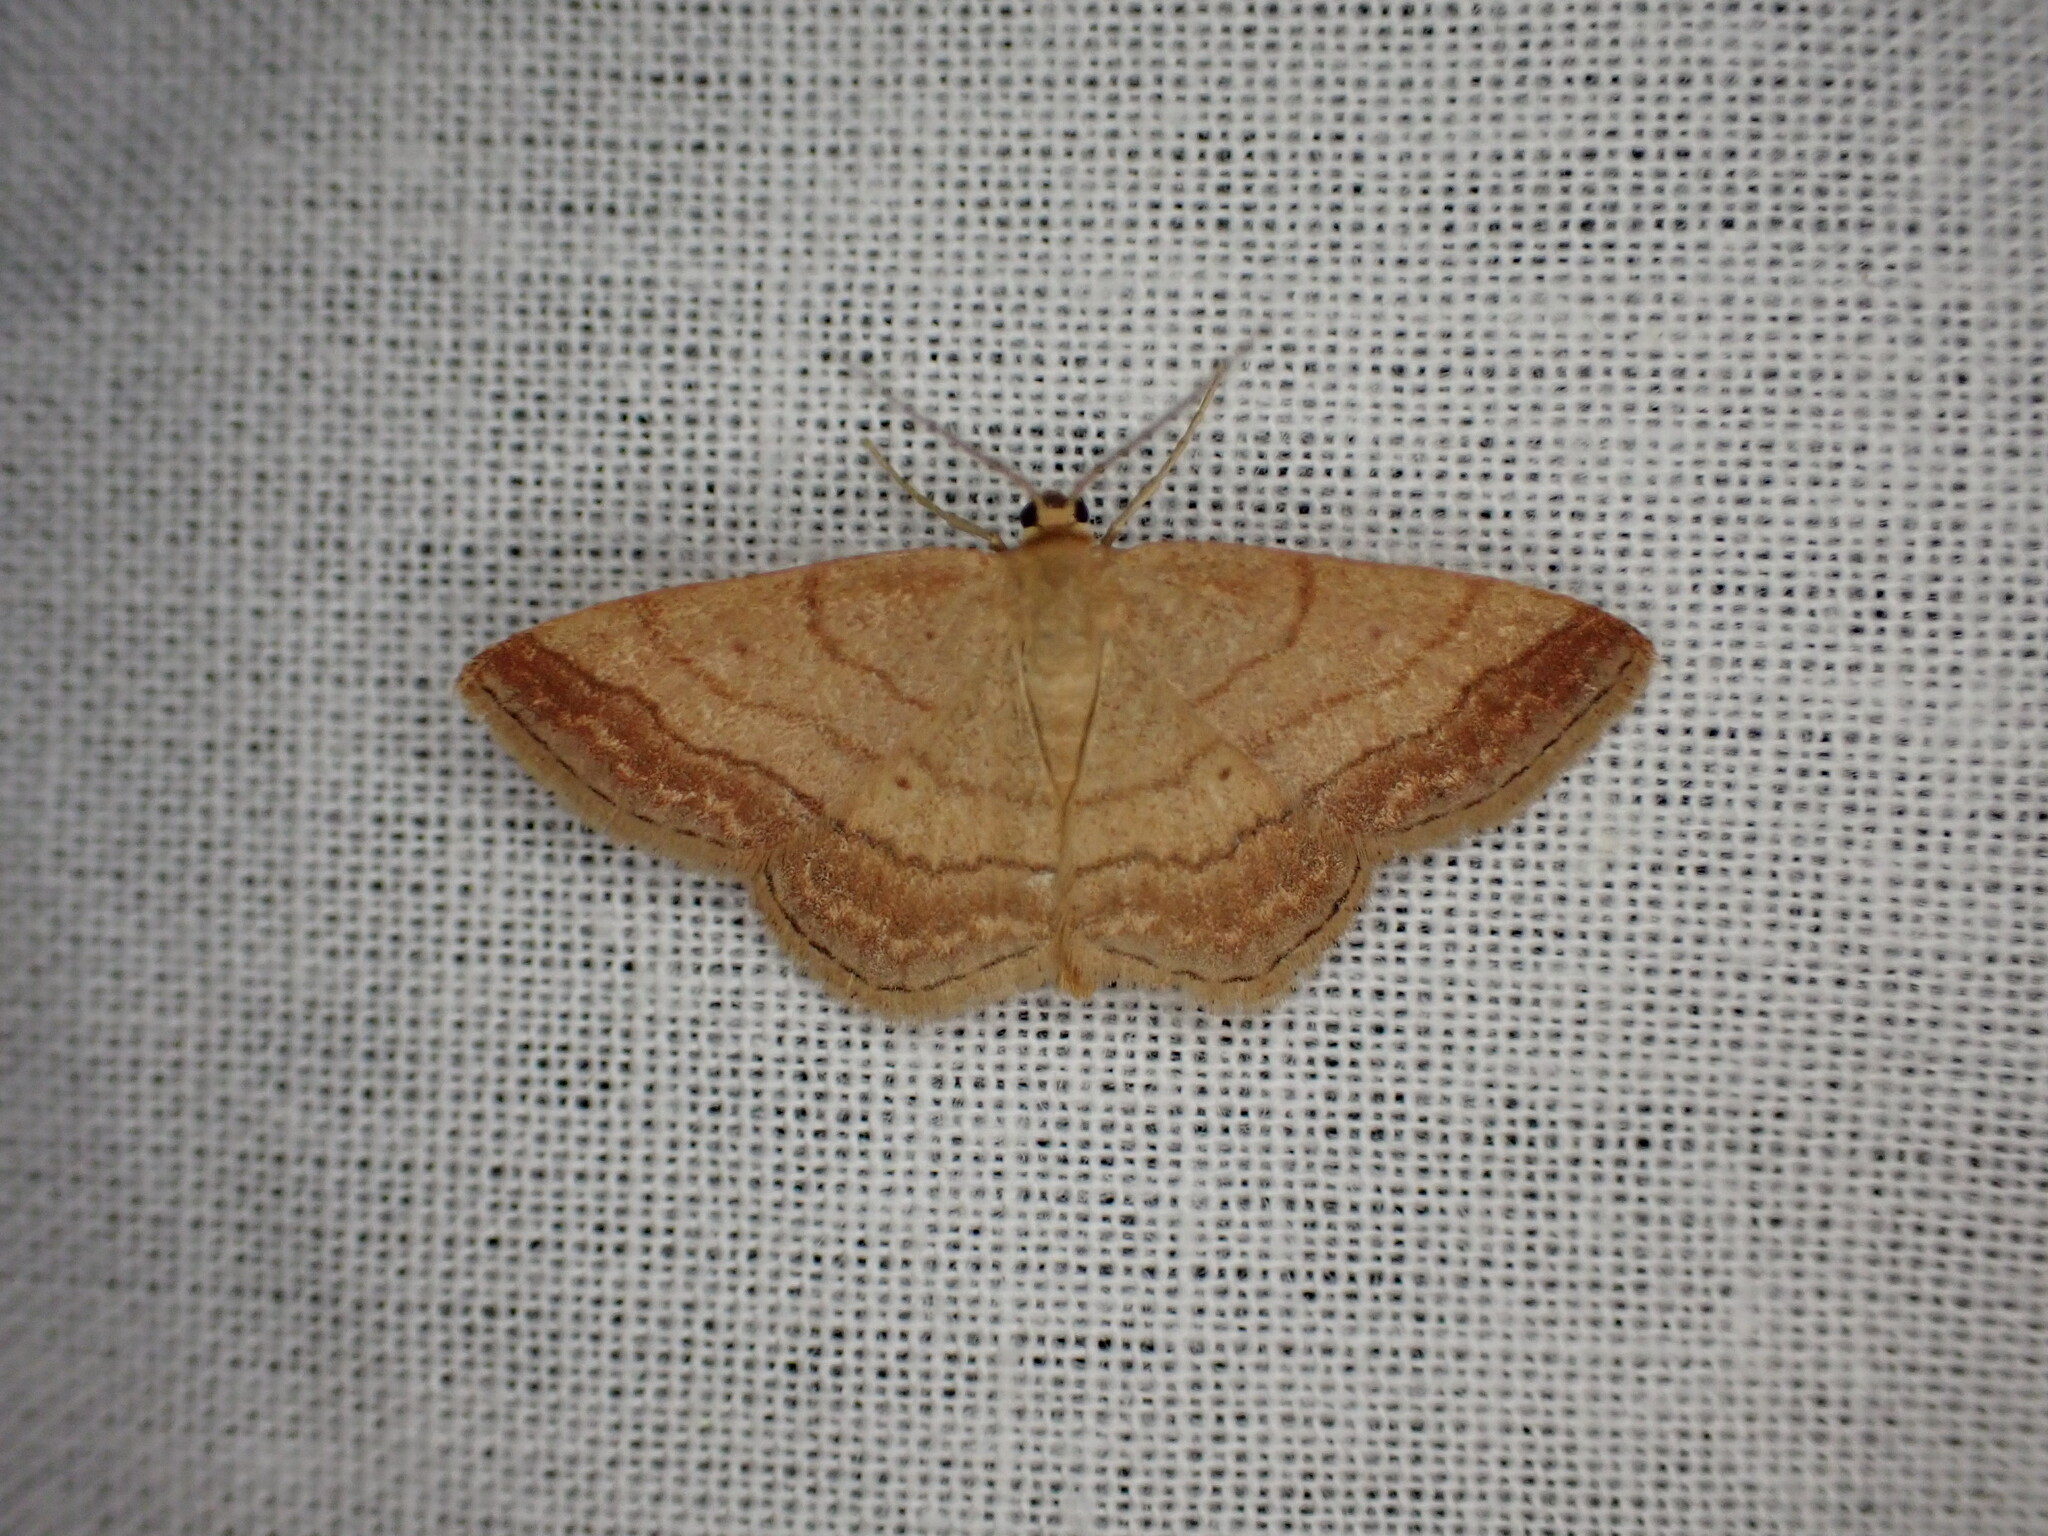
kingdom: Animalia
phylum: Arthropoda
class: Insecta
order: Lepidoptera
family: Geometridae
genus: Scopula
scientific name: Scopula rubiginata
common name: Tawny wave
